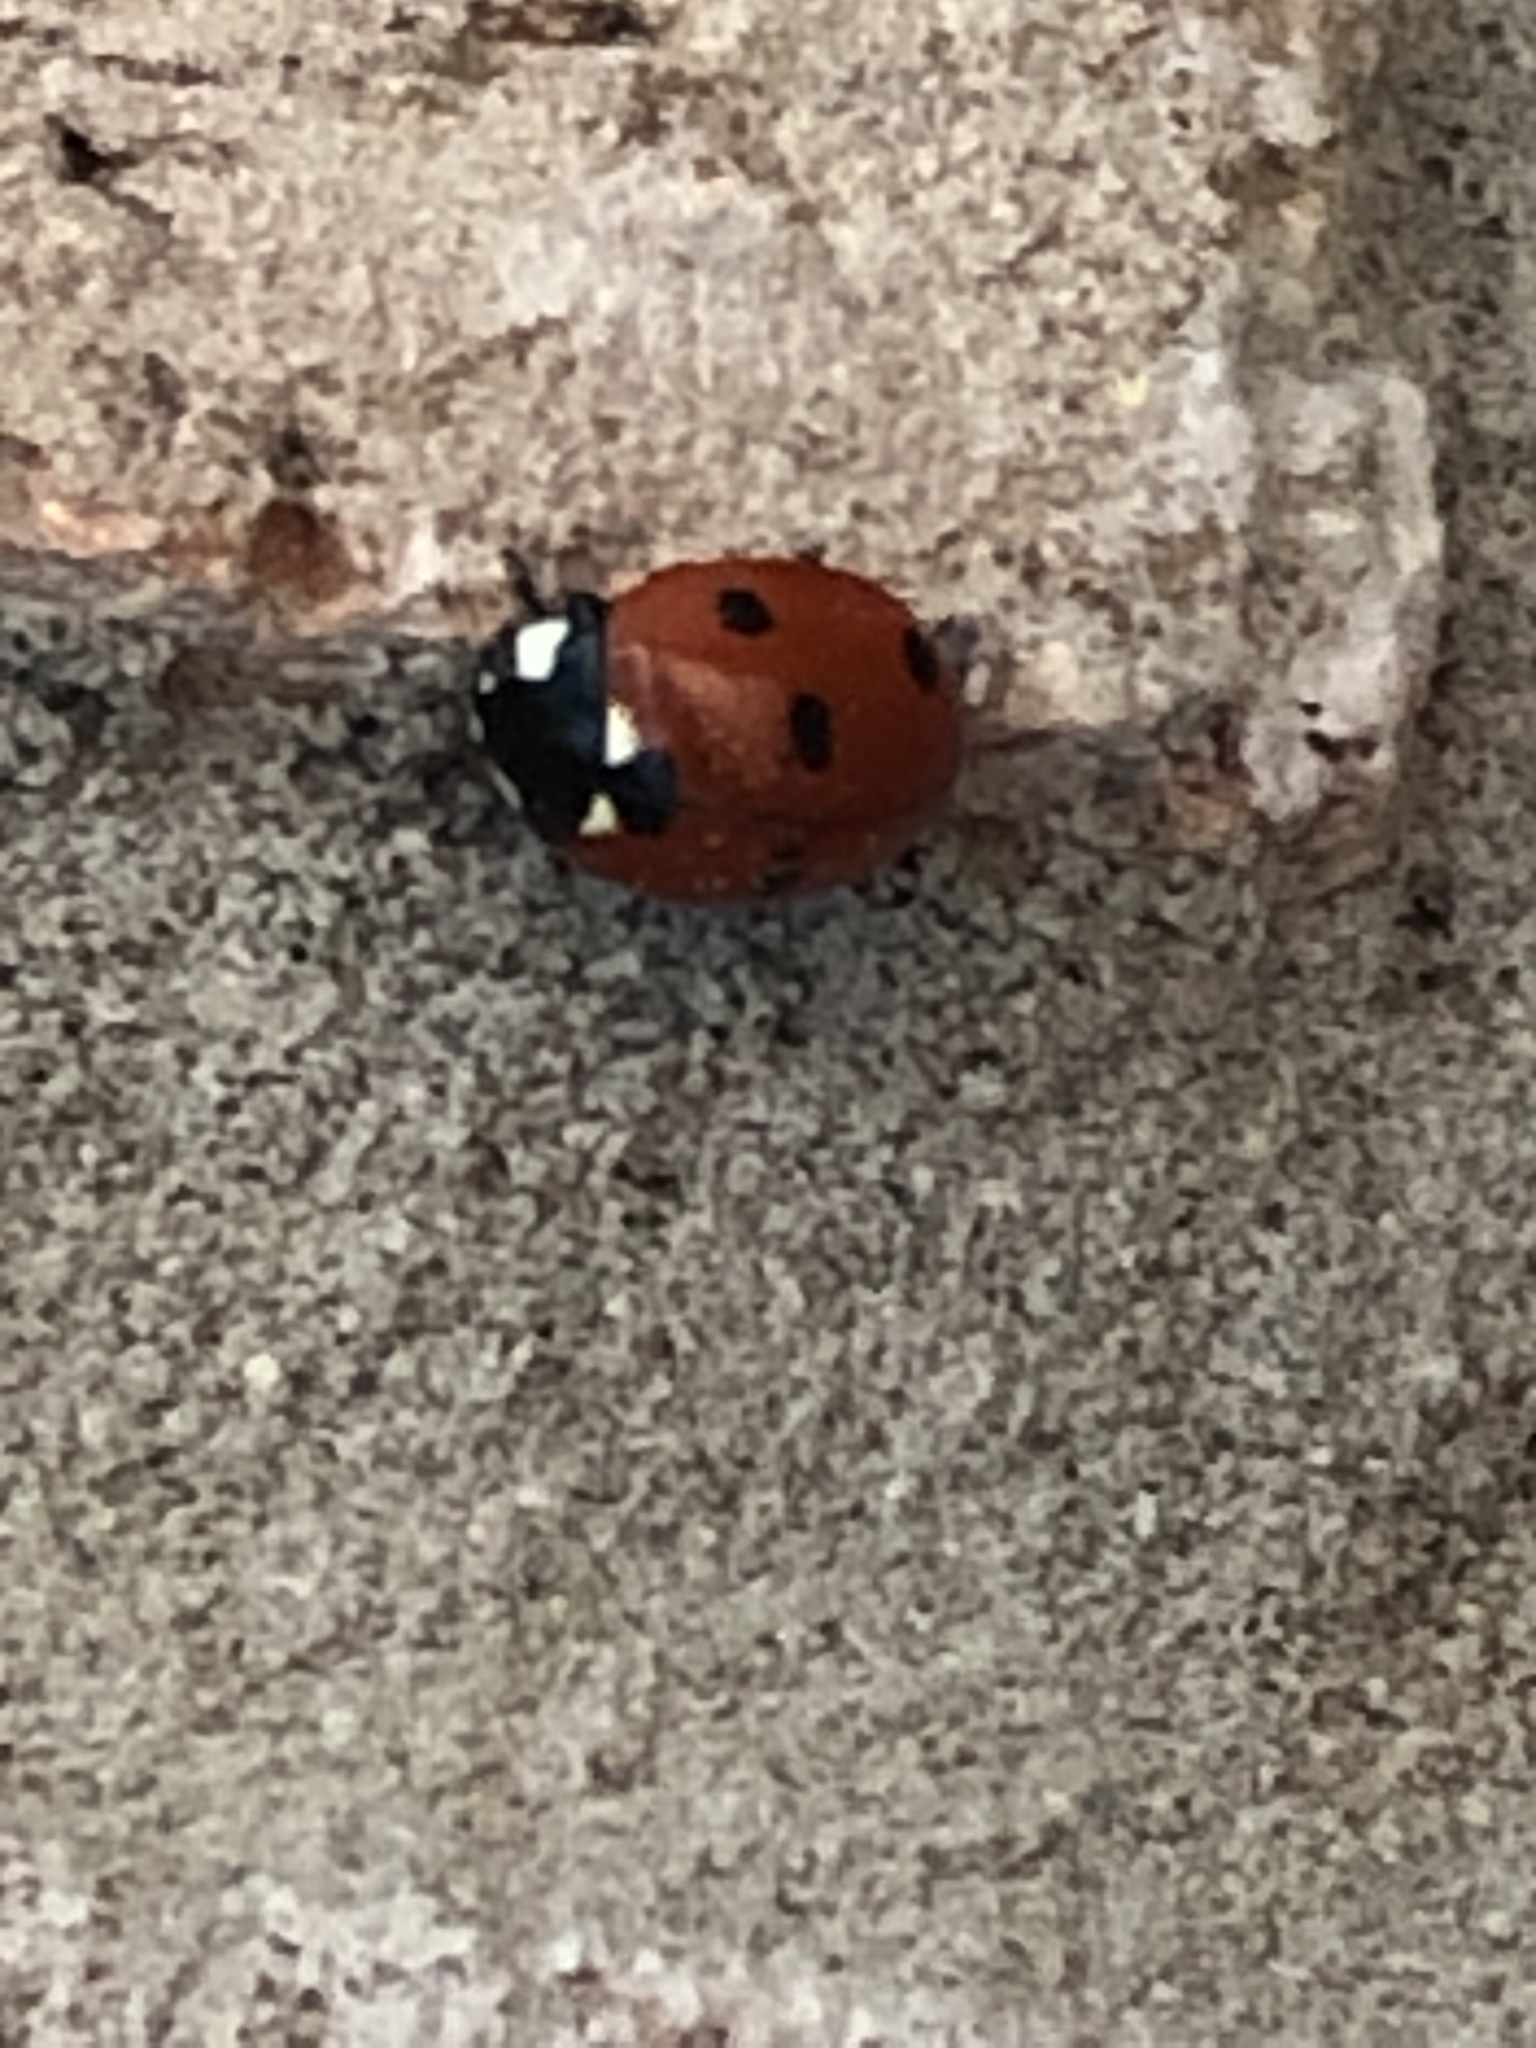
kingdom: Animalia
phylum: Arthropoda
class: Insecta
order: Coleoptera
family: Coccinellidae
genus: Coccinella
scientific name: Coccinella septempunctata
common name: Sevenspotted lady beetle
